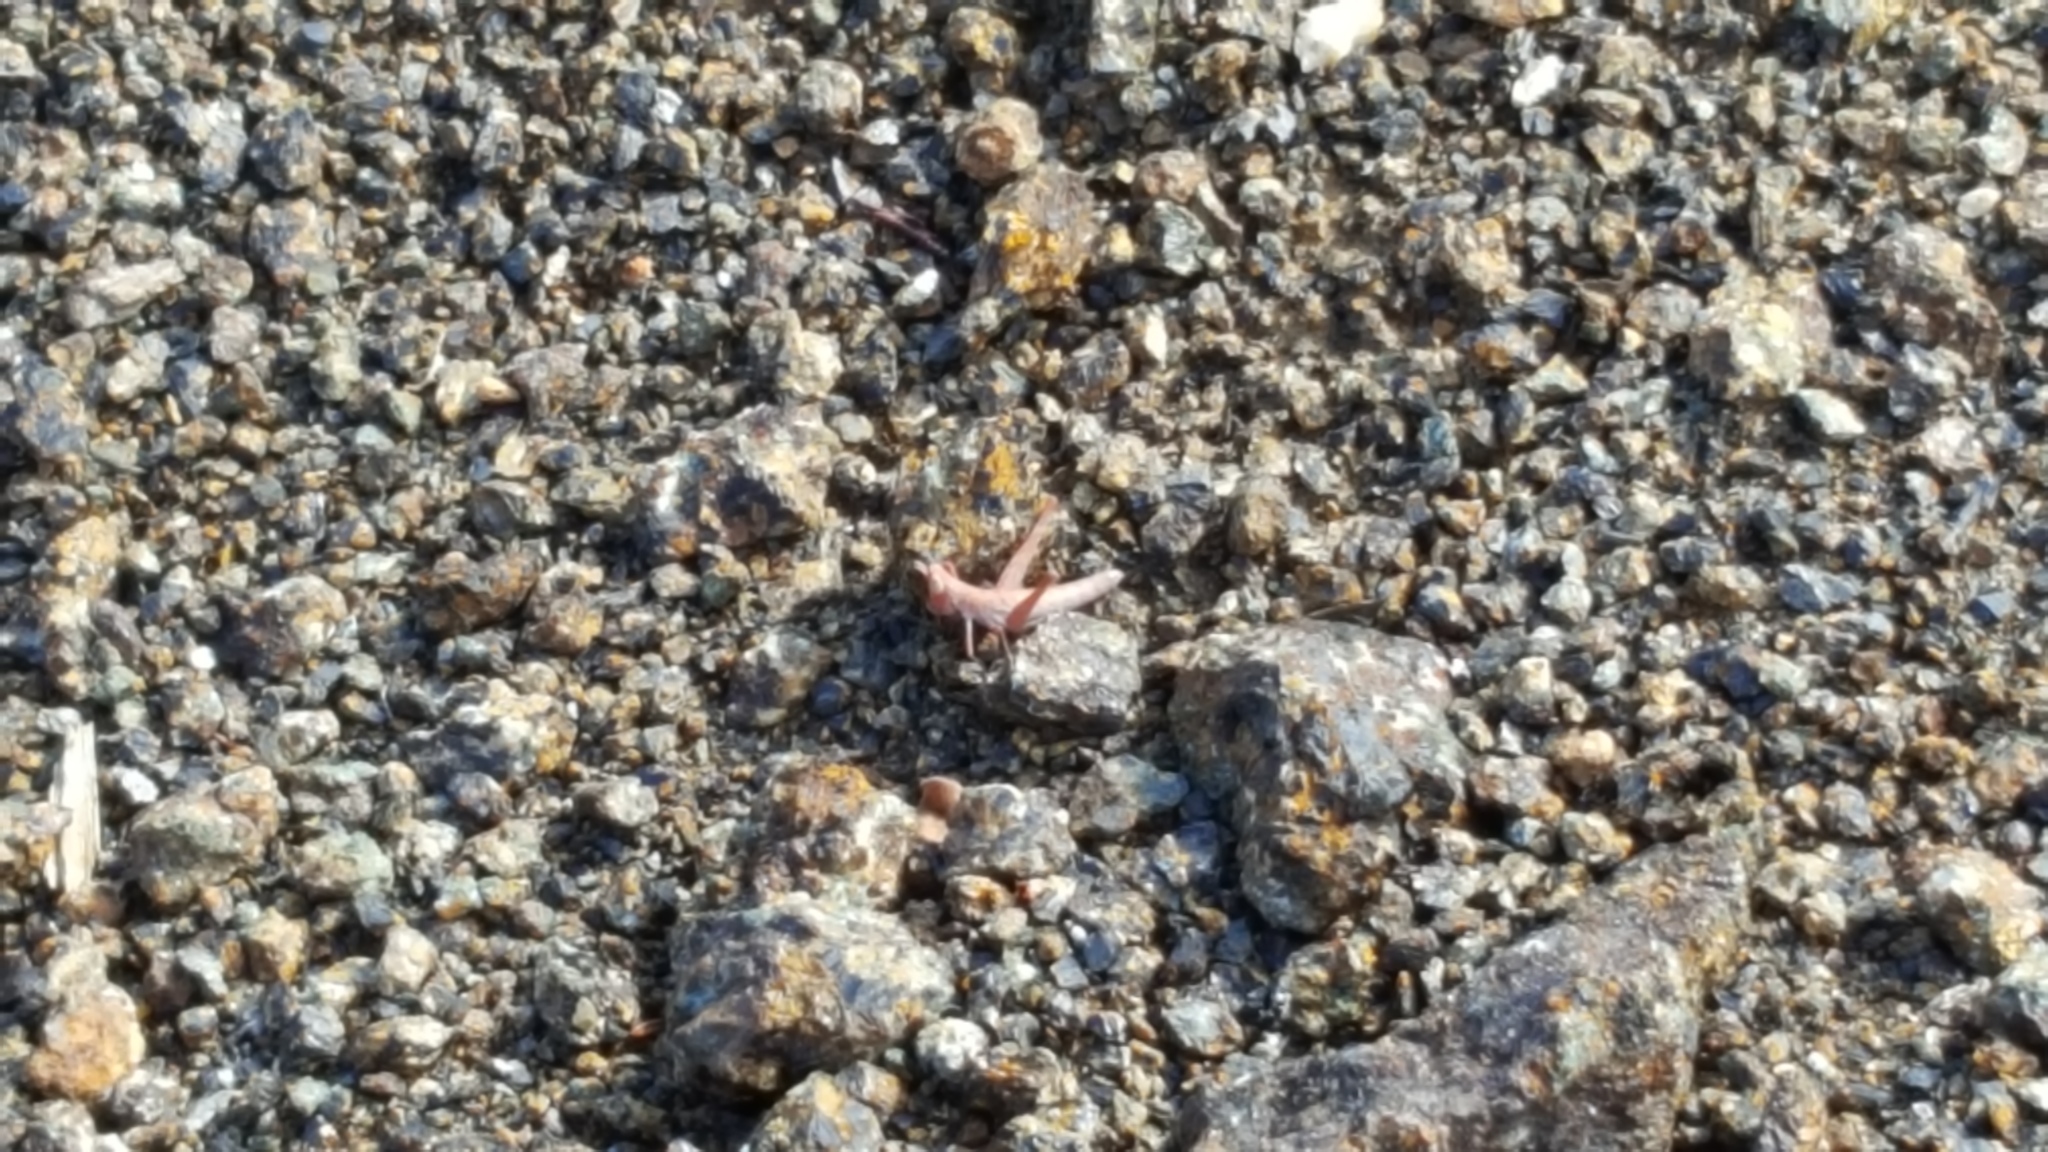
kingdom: Animalia
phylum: Arthropoda
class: Insecta
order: Orthoptera
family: Eumastacidae
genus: Morsea
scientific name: Morsea californica
